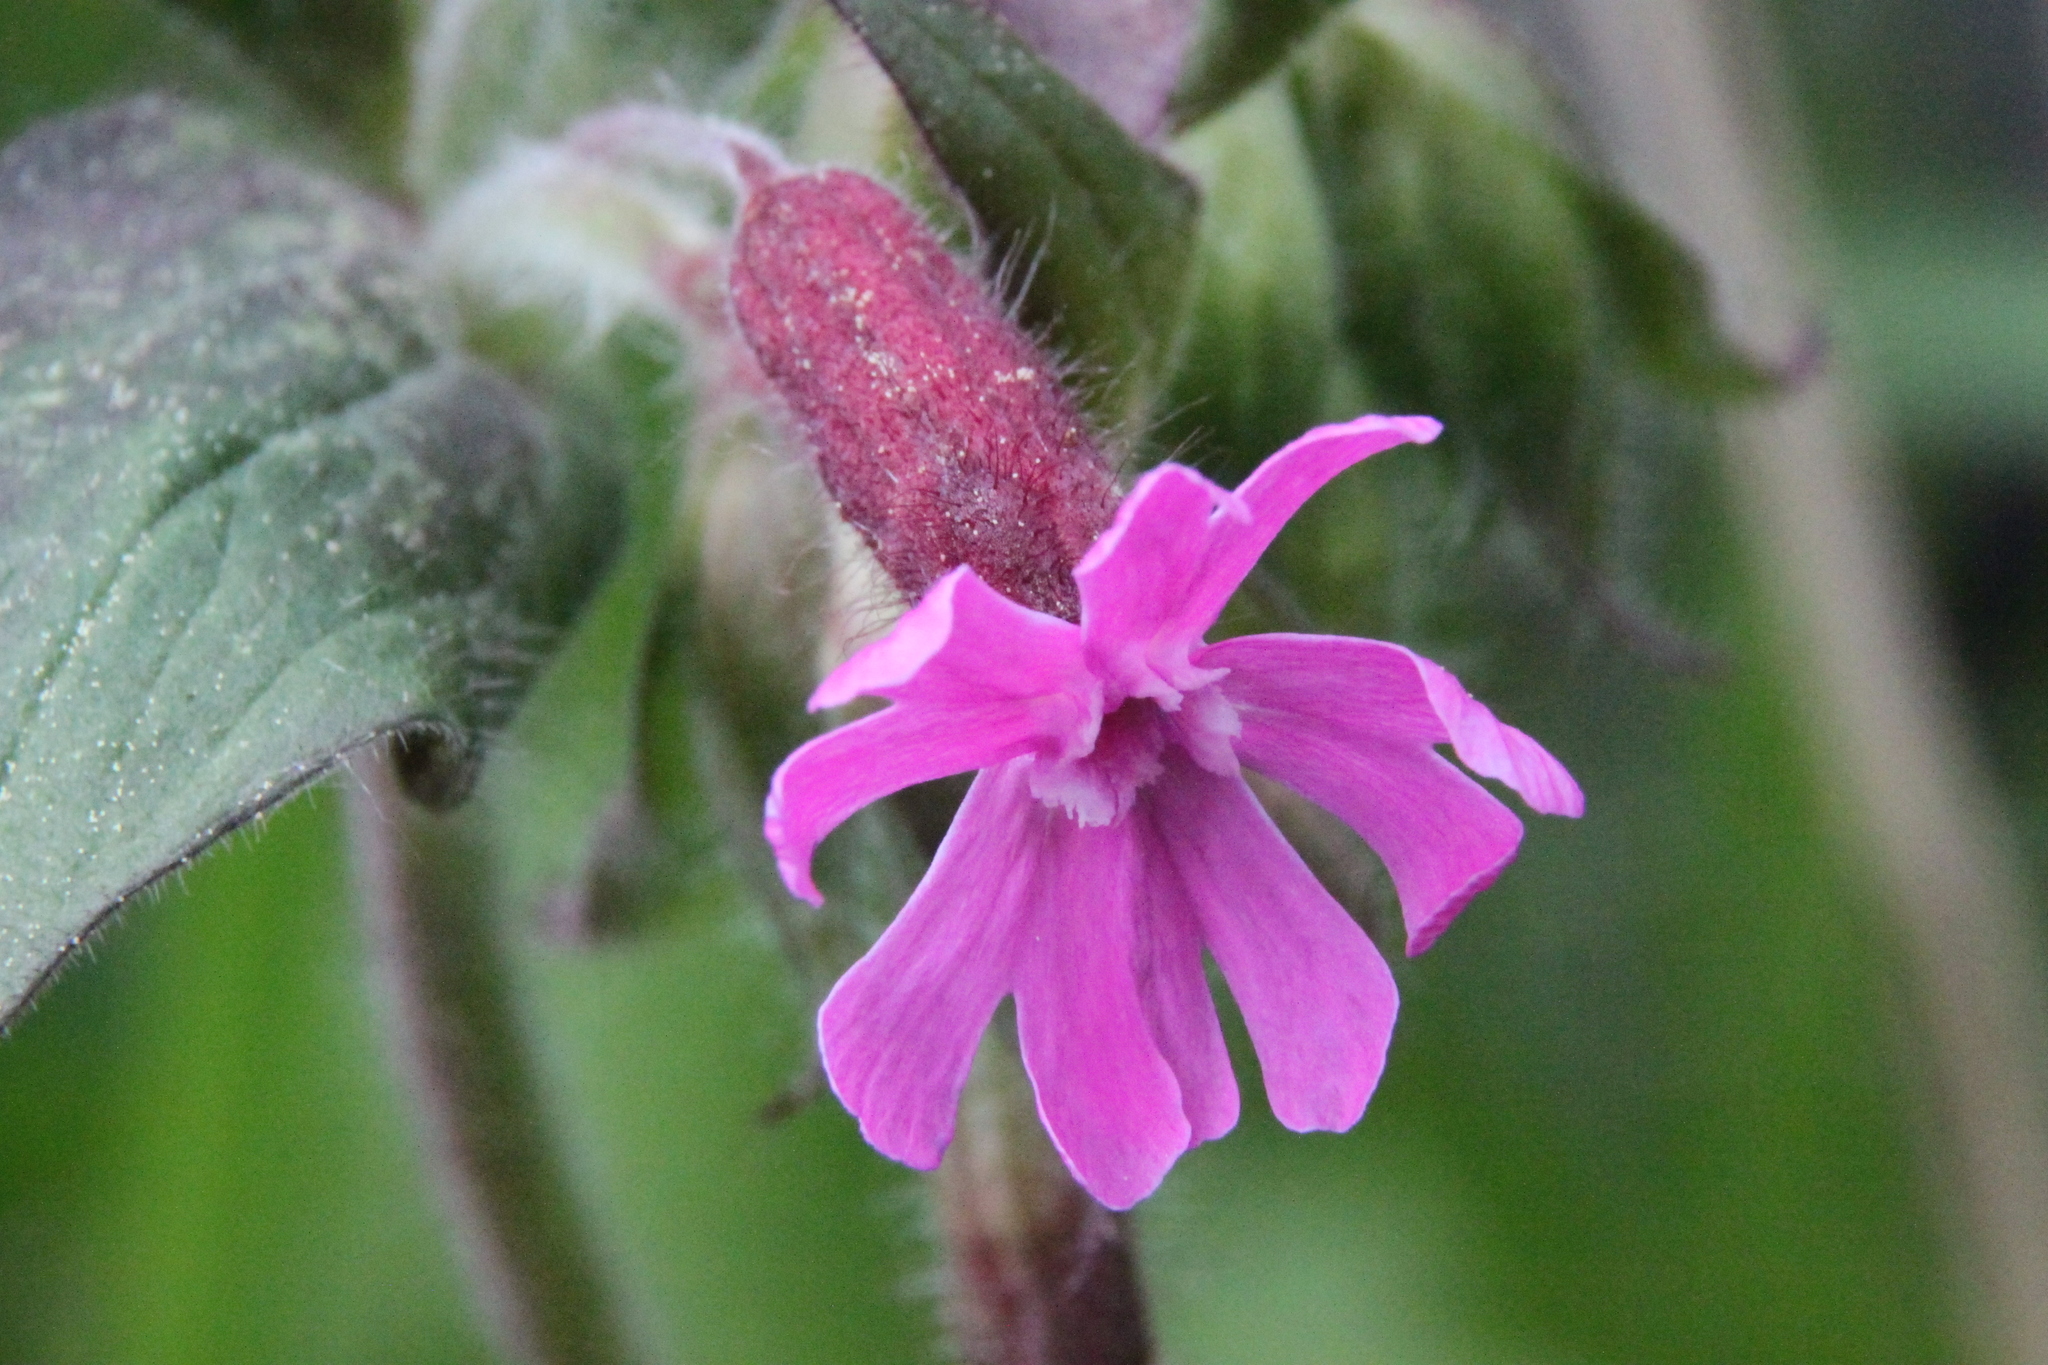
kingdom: Plantae
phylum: Tracheophyta
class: Magnoliopsida
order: Caryophyllales
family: Caryophyllaceae
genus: Silene
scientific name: Silene dioica
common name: Red campion
